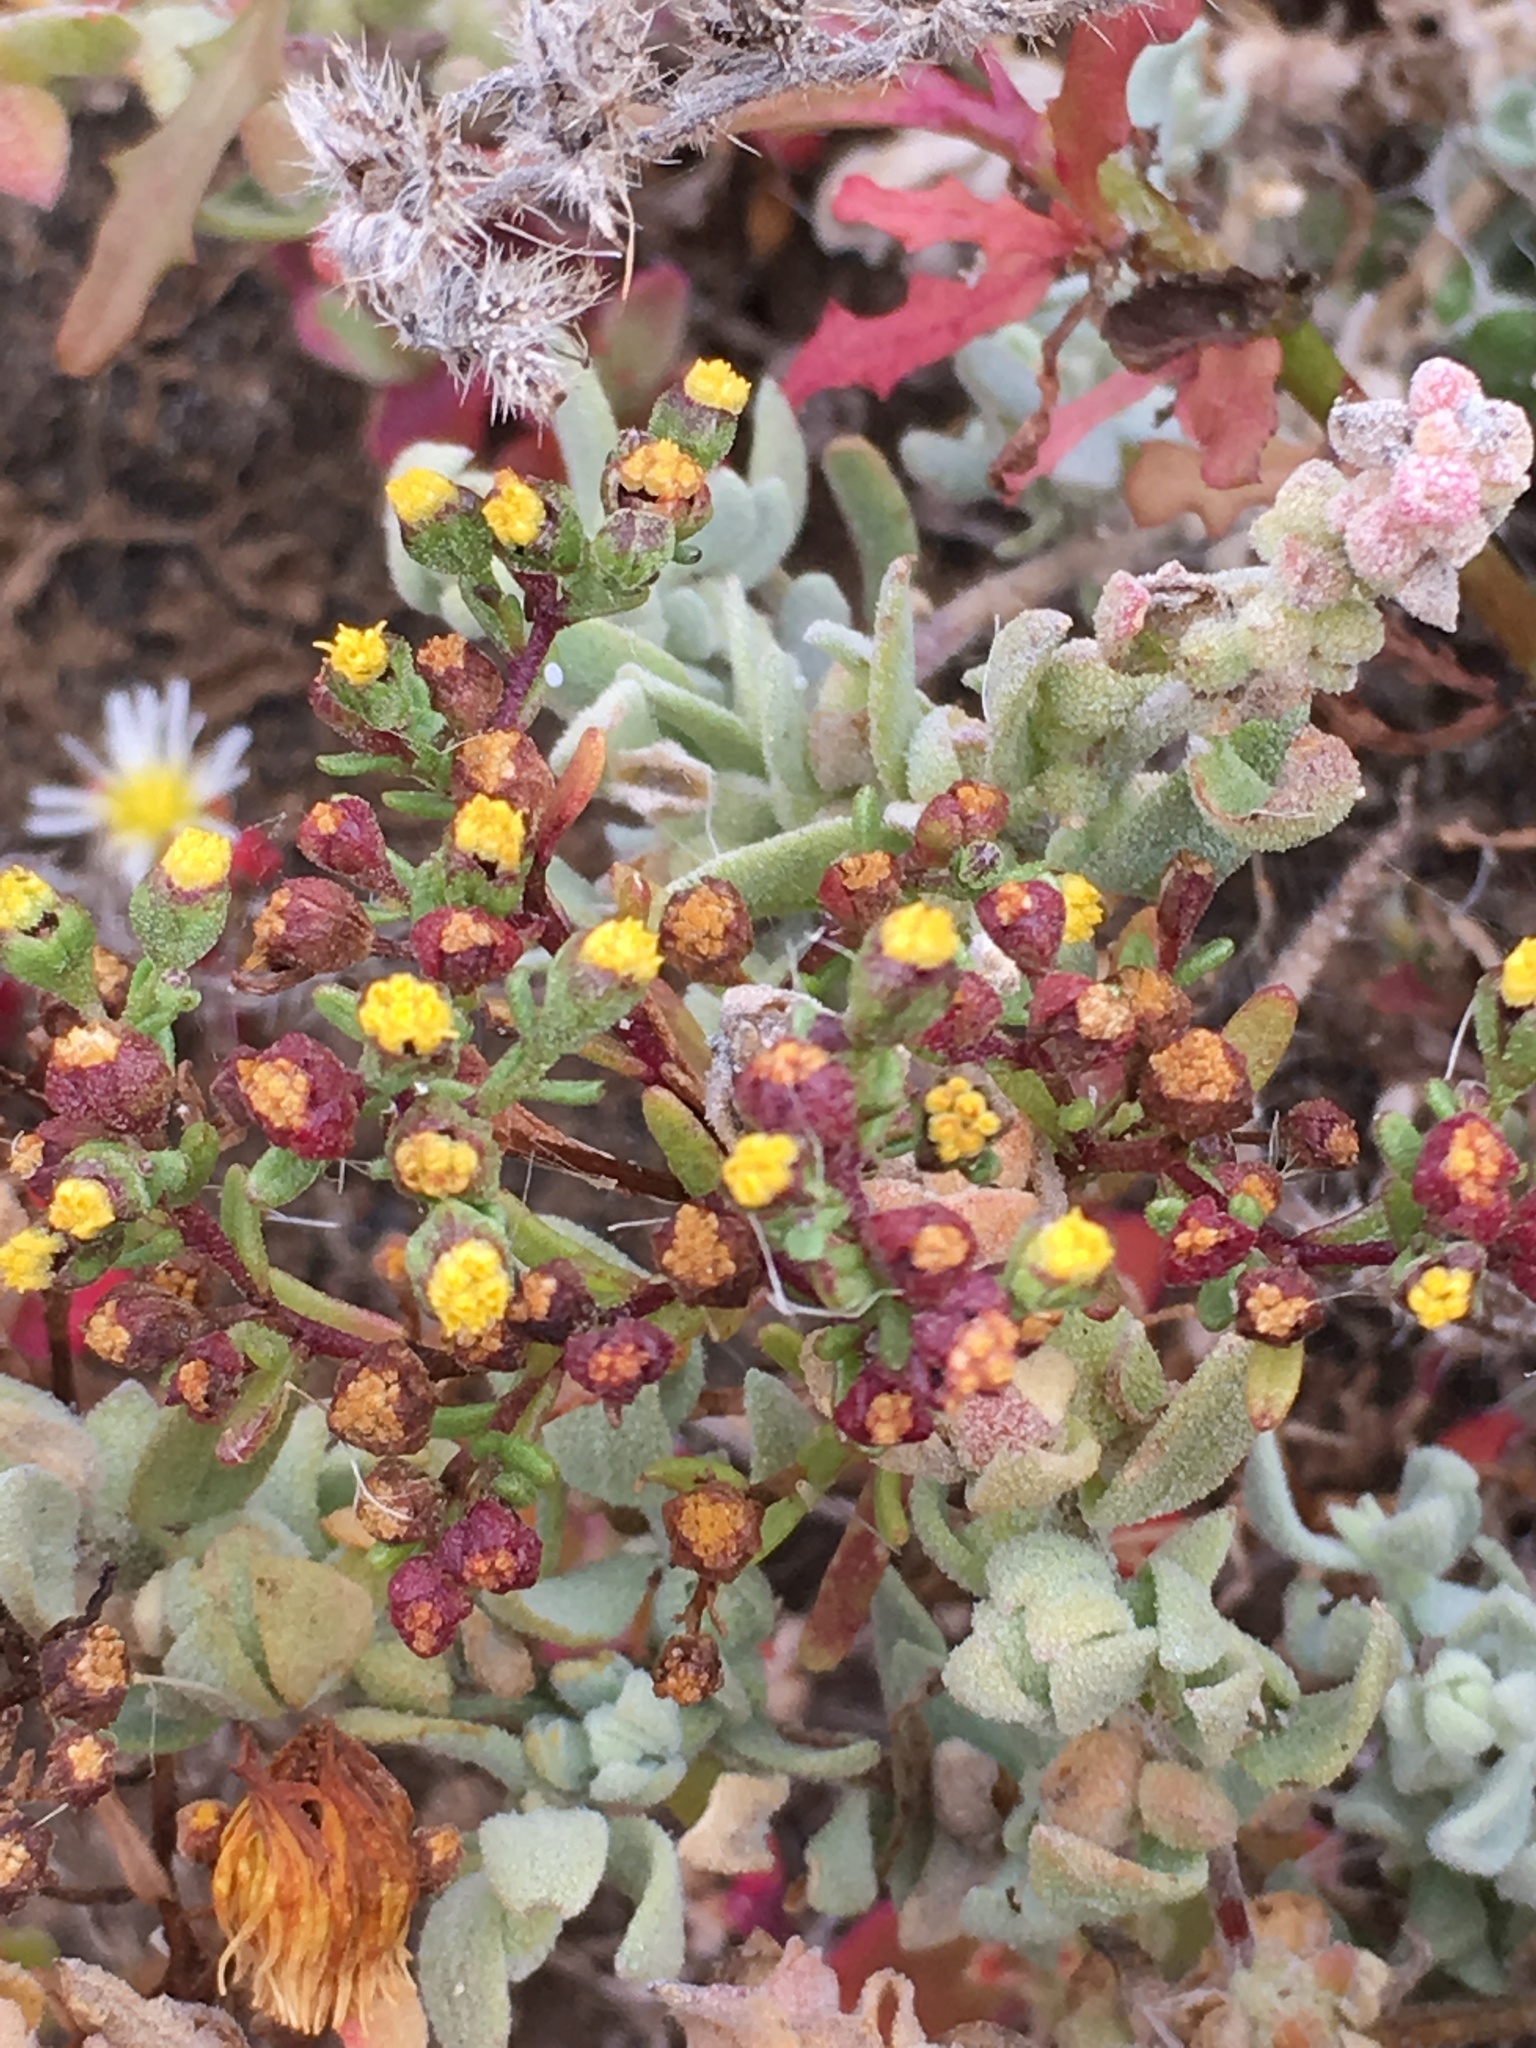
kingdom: Plantae
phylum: Tracheophyta
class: Magnoliopsida
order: Asterales
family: Asteraceae
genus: Amblyopappus
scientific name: Amblyopappus pusillus
